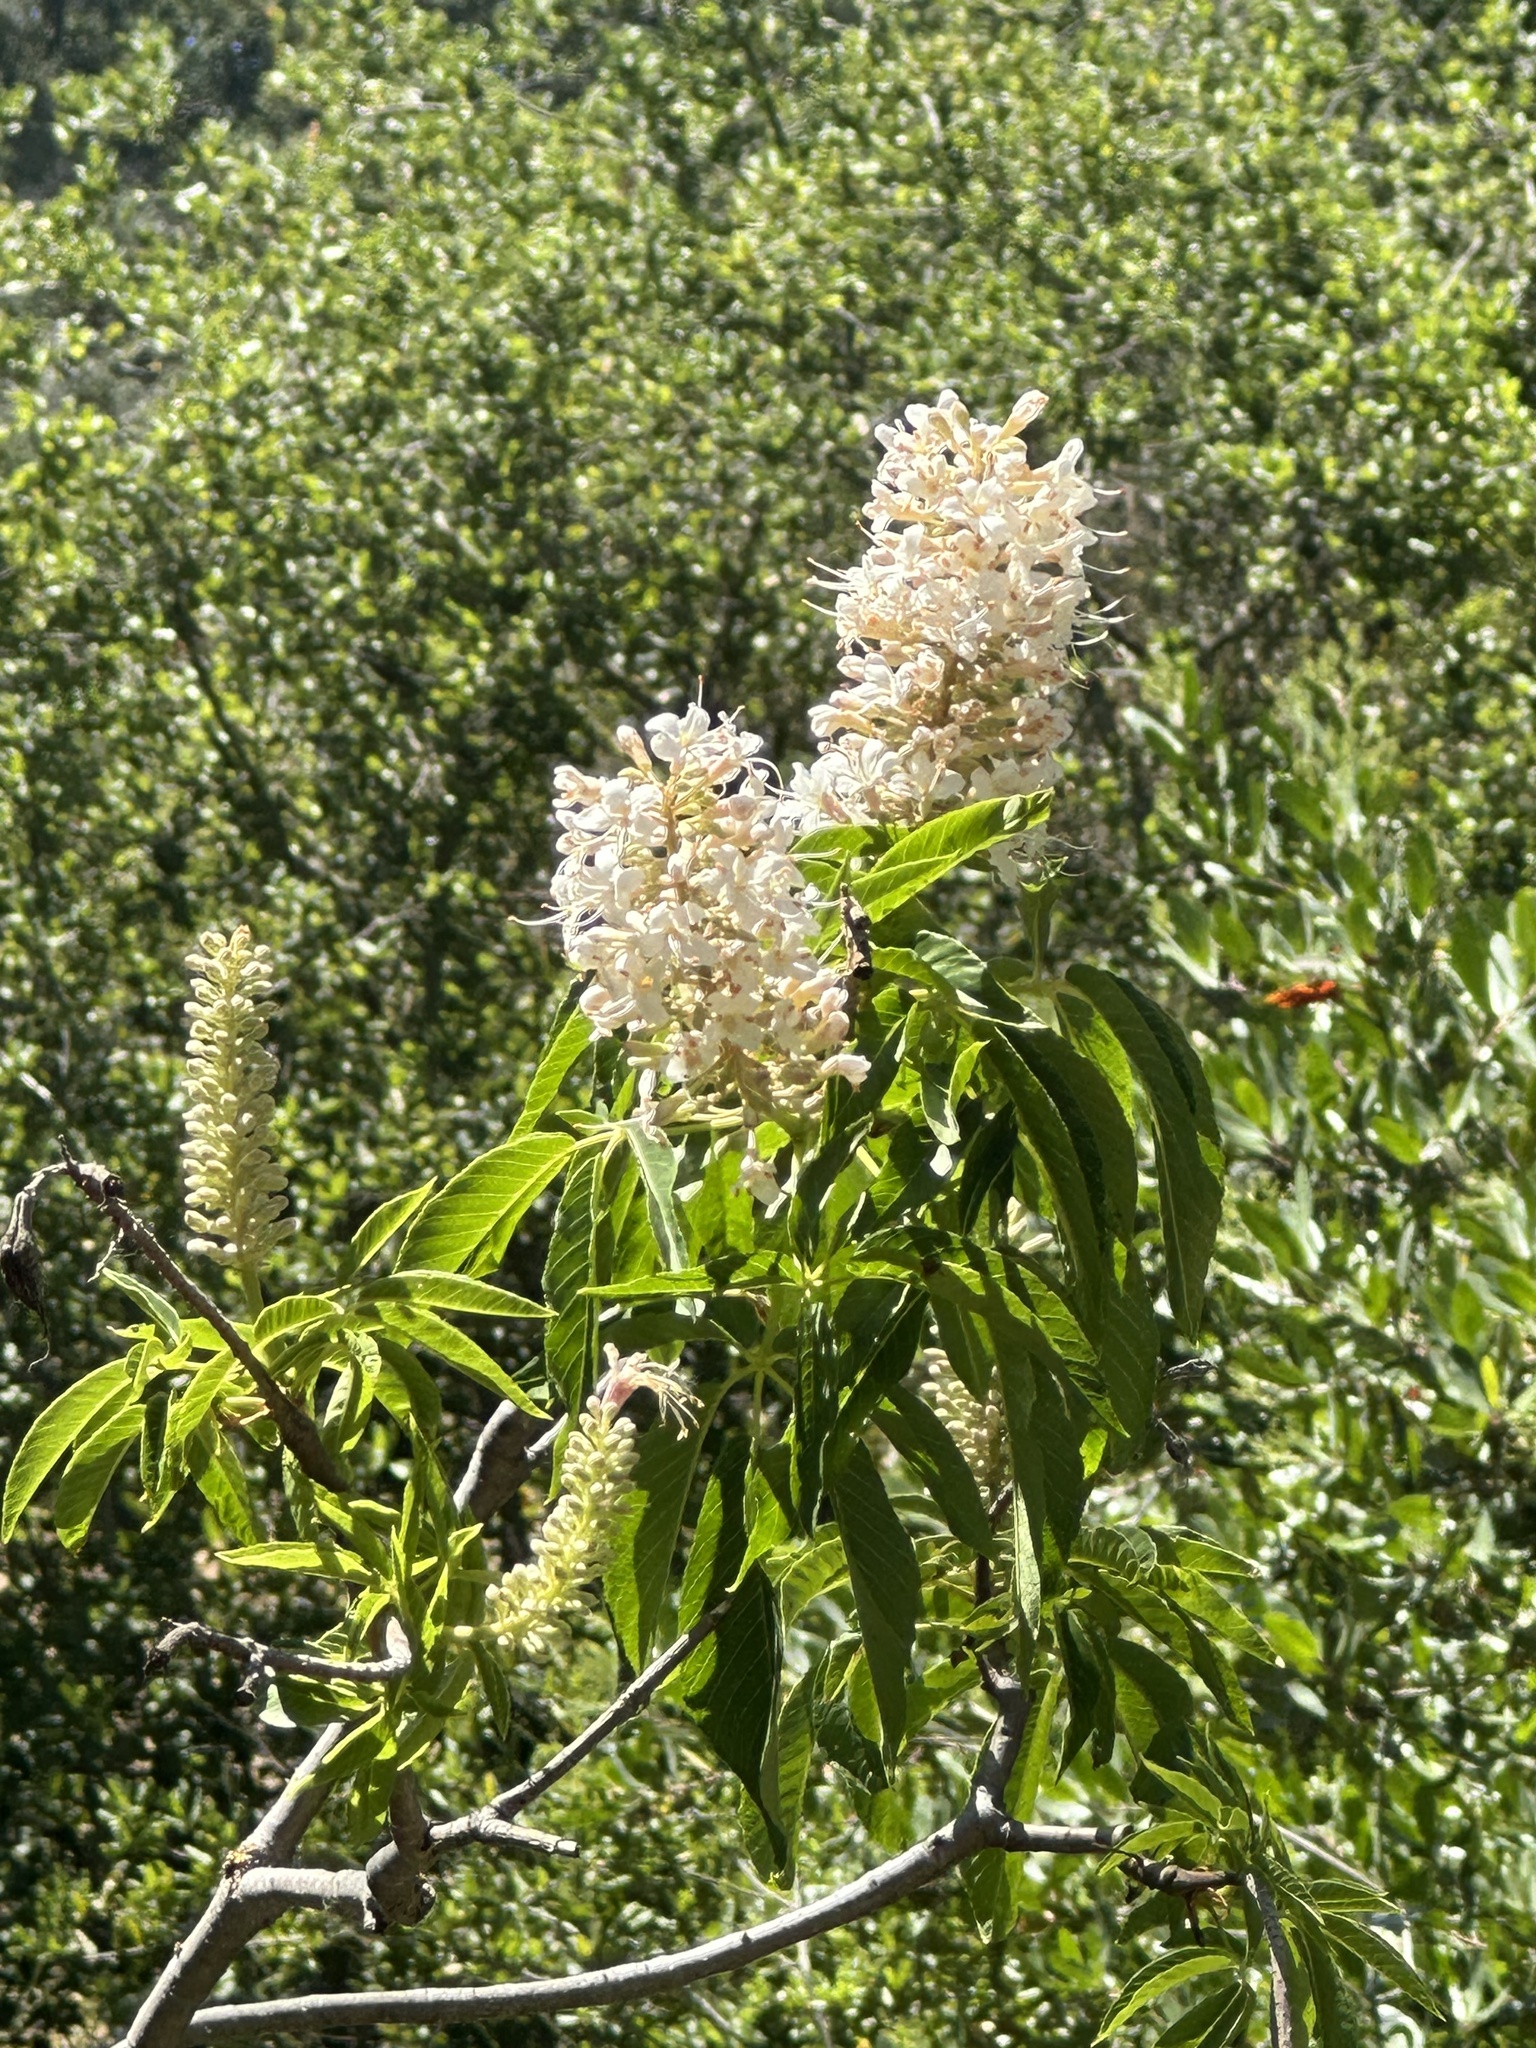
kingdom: Plantae
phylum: Tracheophyta
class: Magnoliopsida
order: Sapindales
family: Sapindaceae
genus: Aesculus
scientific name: Aesculus californica
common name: California buckeye
